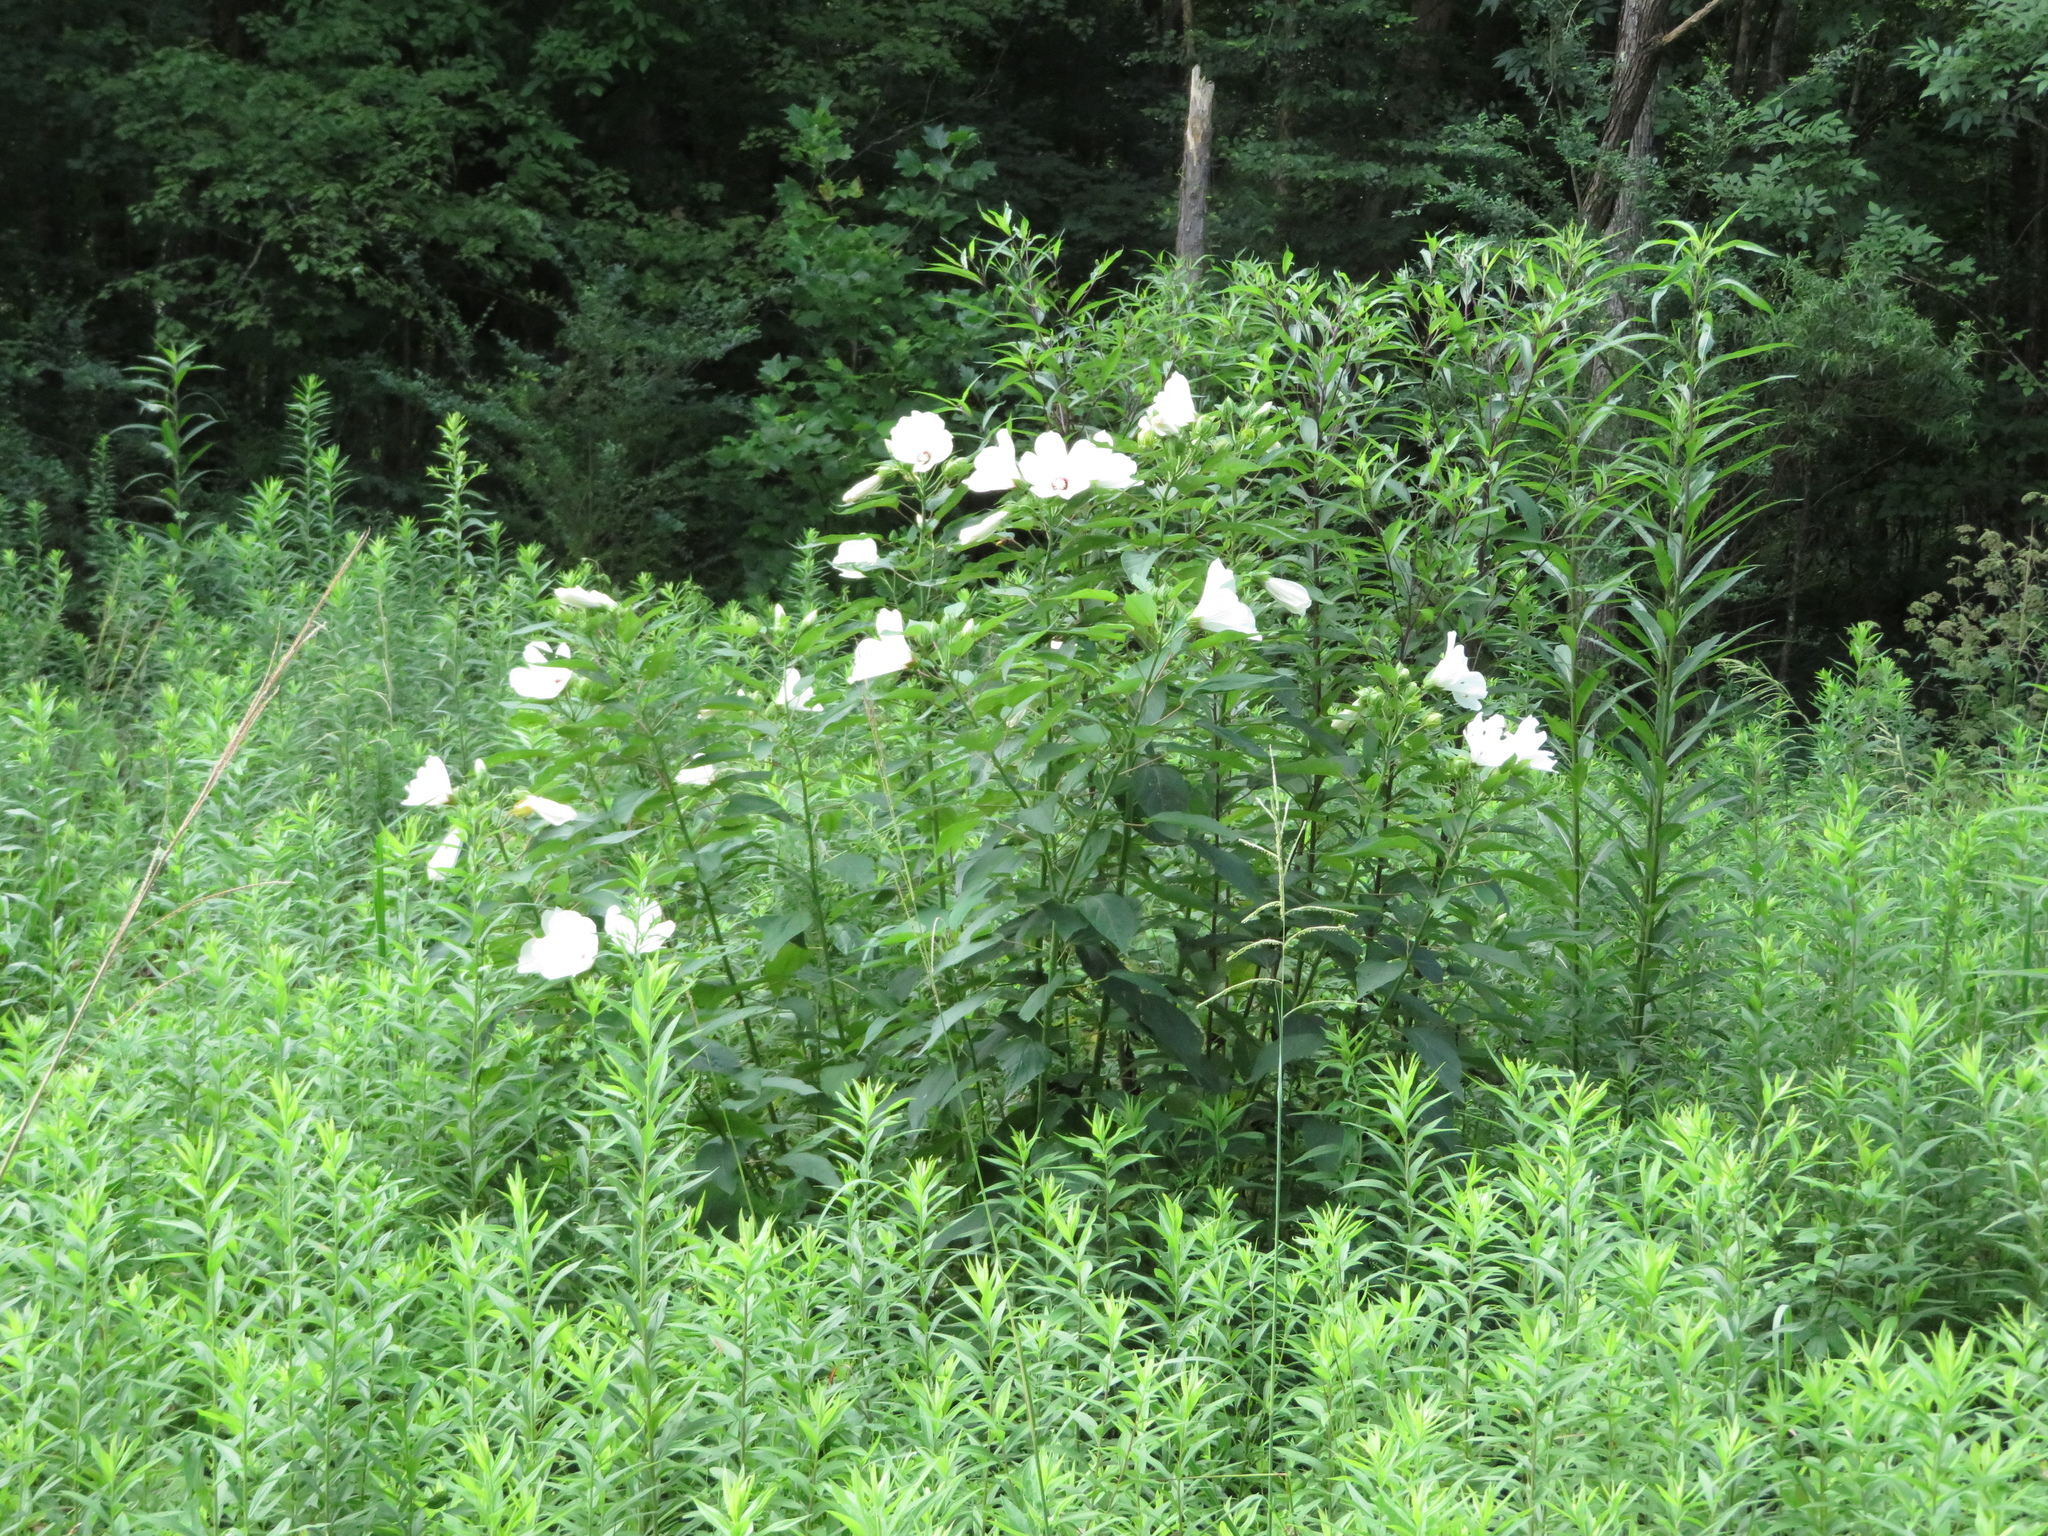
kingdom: Plantae
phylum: Tracheophyta
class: Magnoliopsida
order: Malvales
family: Malvaceae
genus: Hibiscus
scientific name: Hibiscus moscheutos
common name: Common rose-mallow
